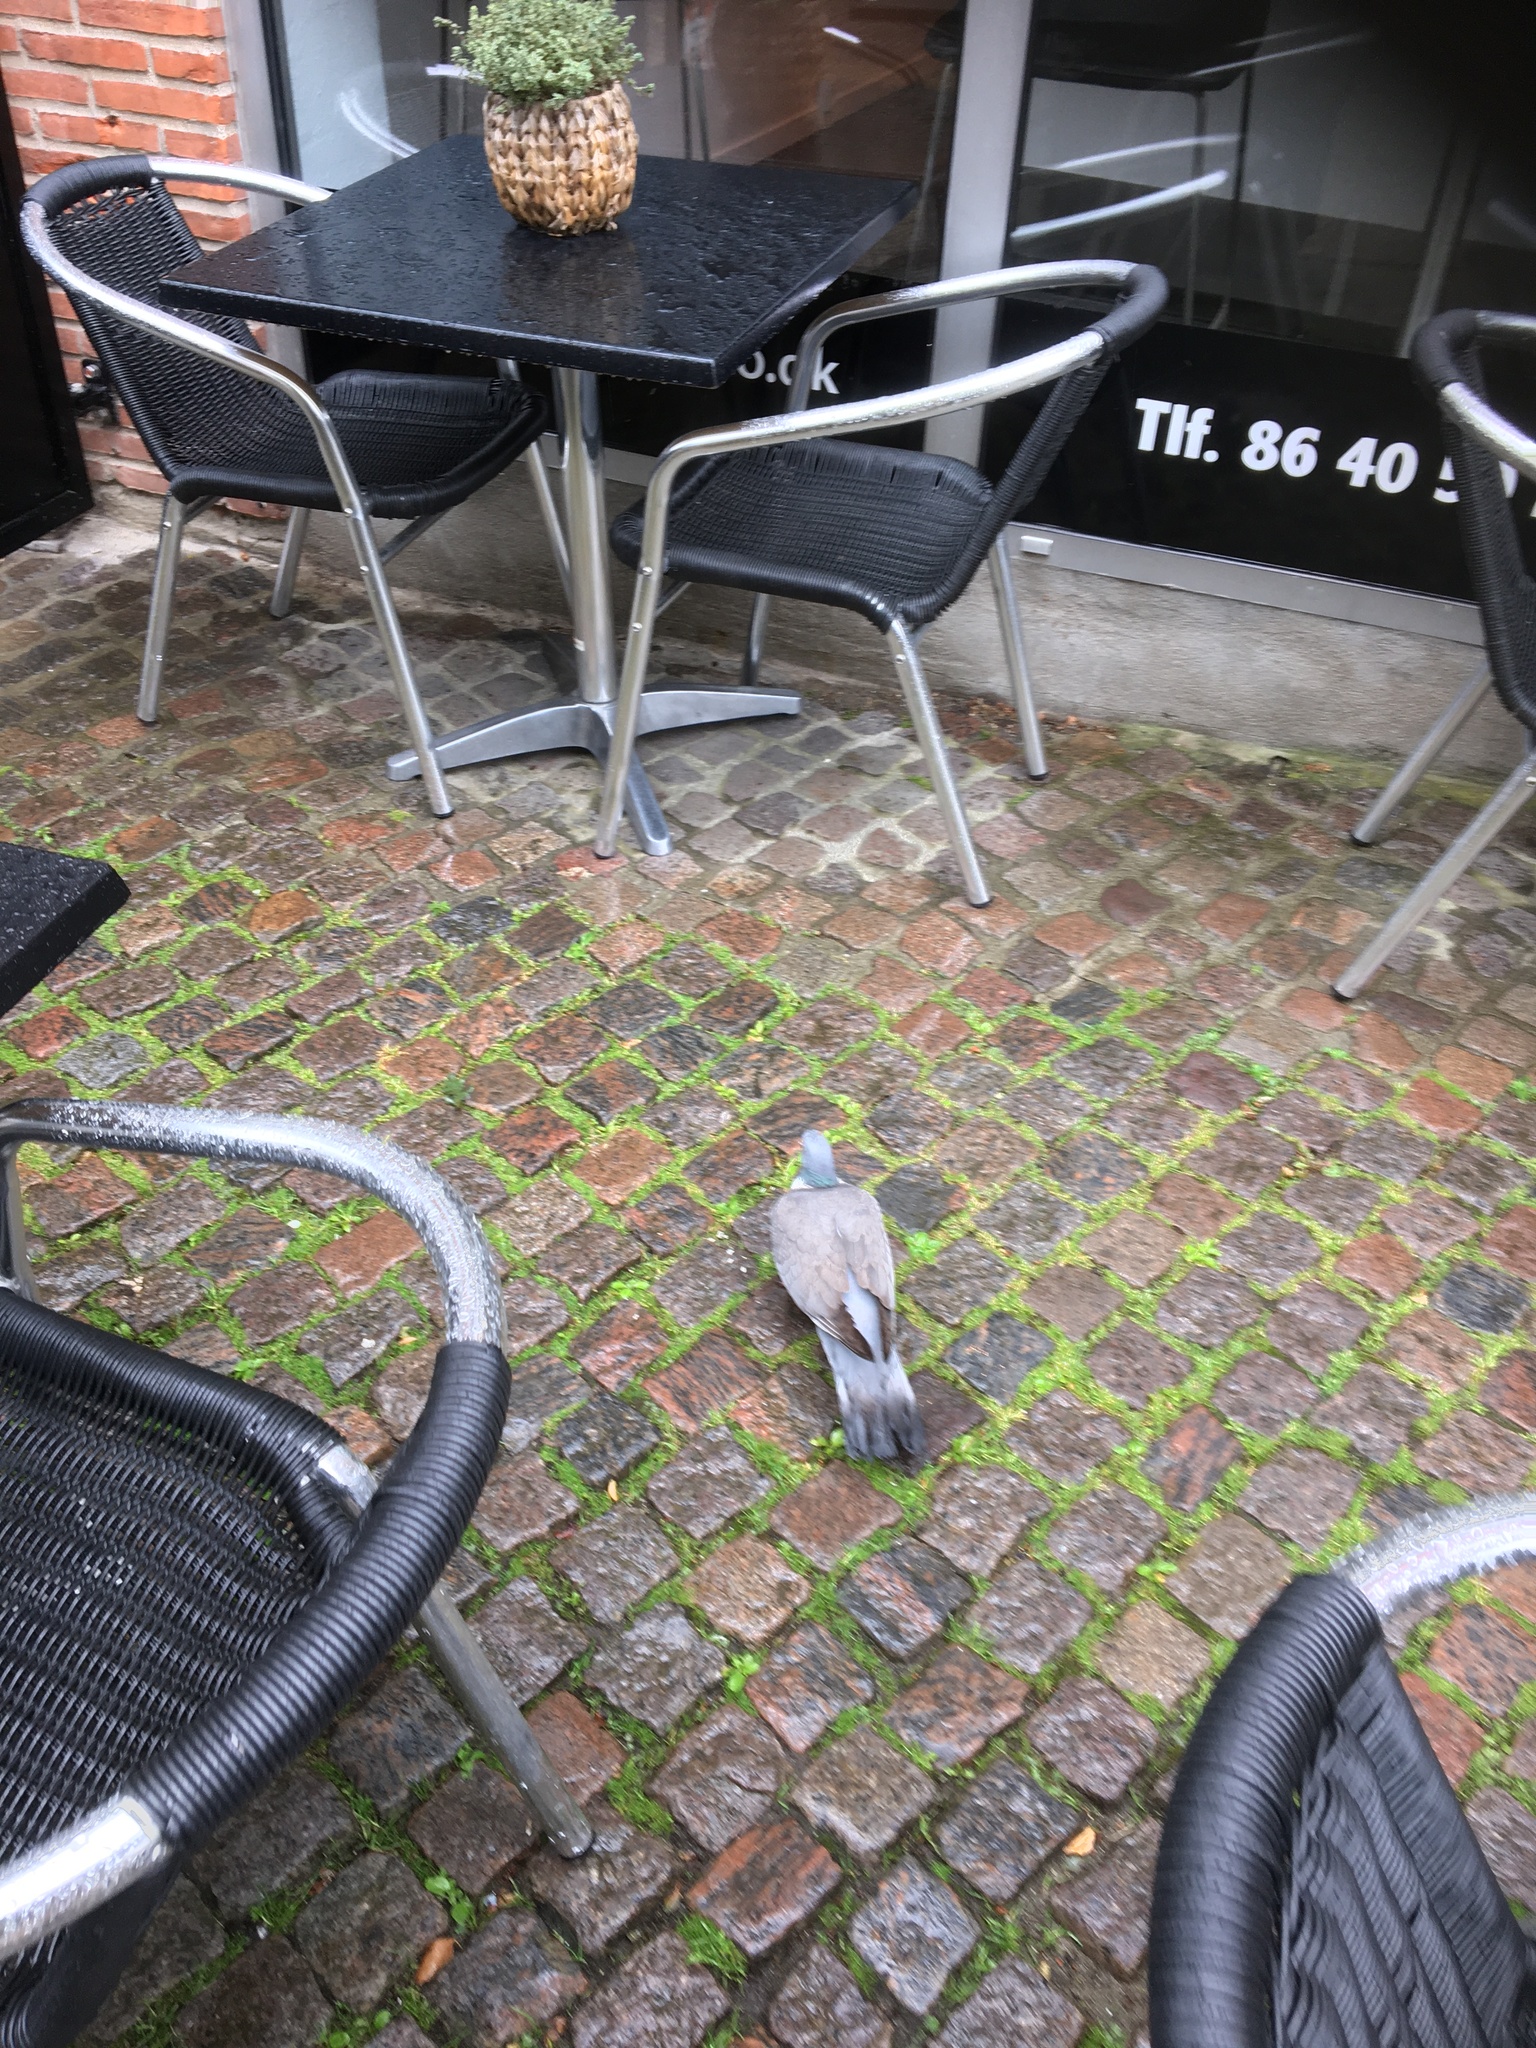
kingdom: Animalia
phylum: Chordata
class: Aves
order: Columbiformes
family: Columbidae
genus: Columba
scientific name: Columba palumbus
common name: Common wood pigeon
